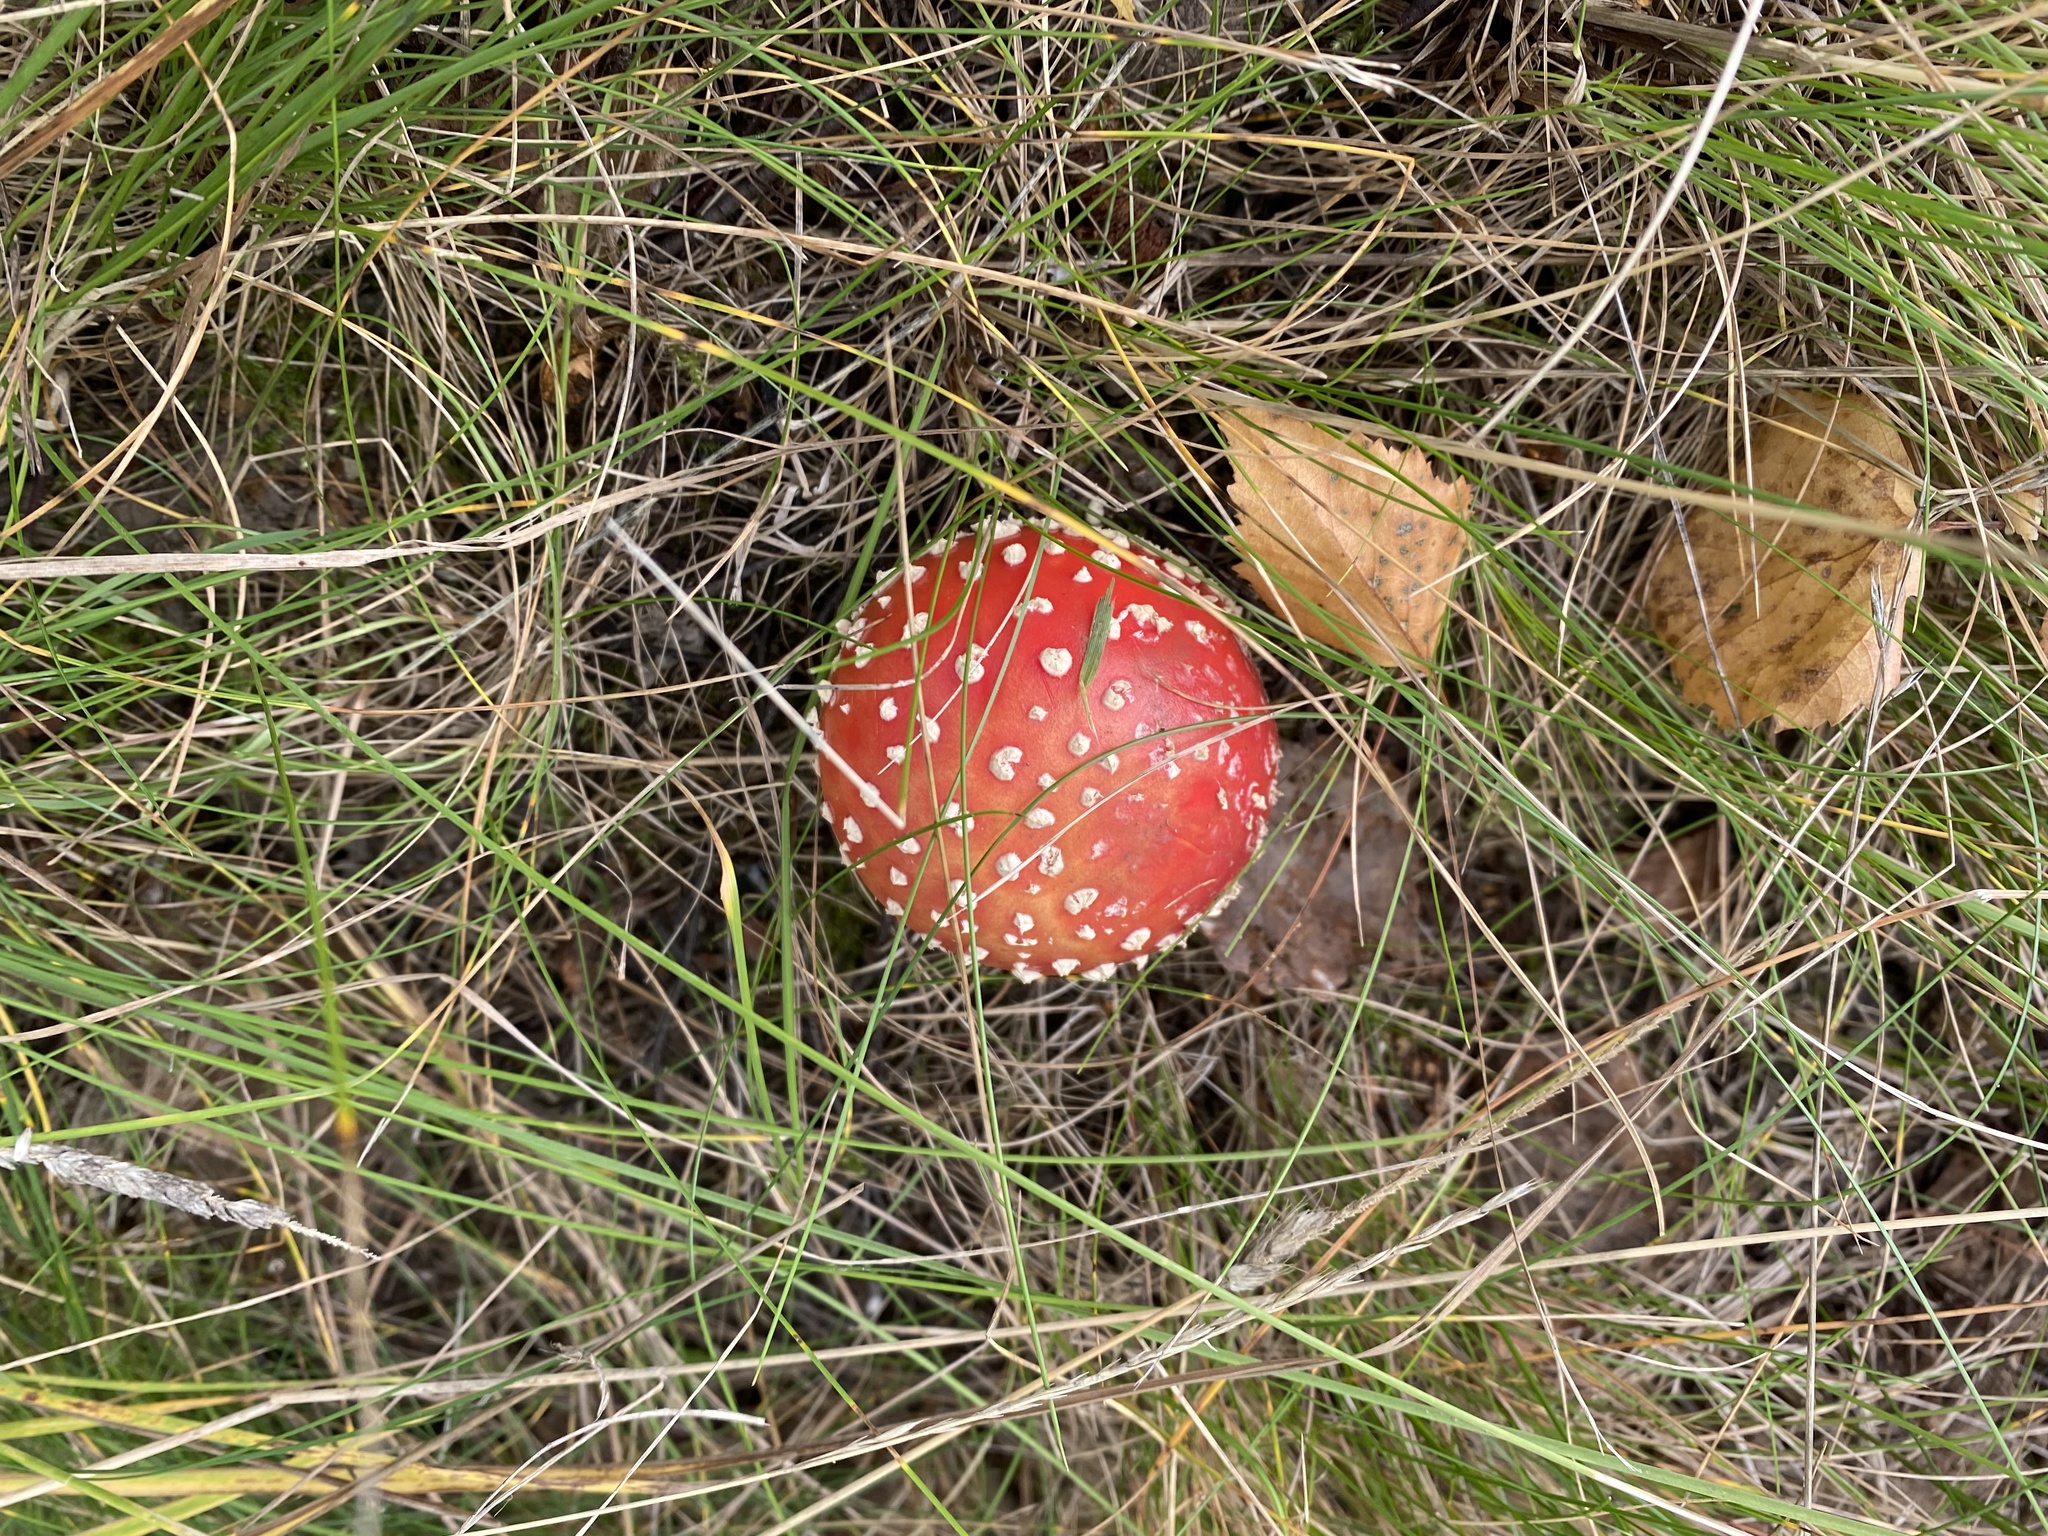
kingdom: Fungi
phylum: Basidiomycota
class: Agaricomycetes
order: Agaricales
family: Amanitaceae
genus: Amanita
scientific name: Amanita muscaria
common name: Fly agaric
